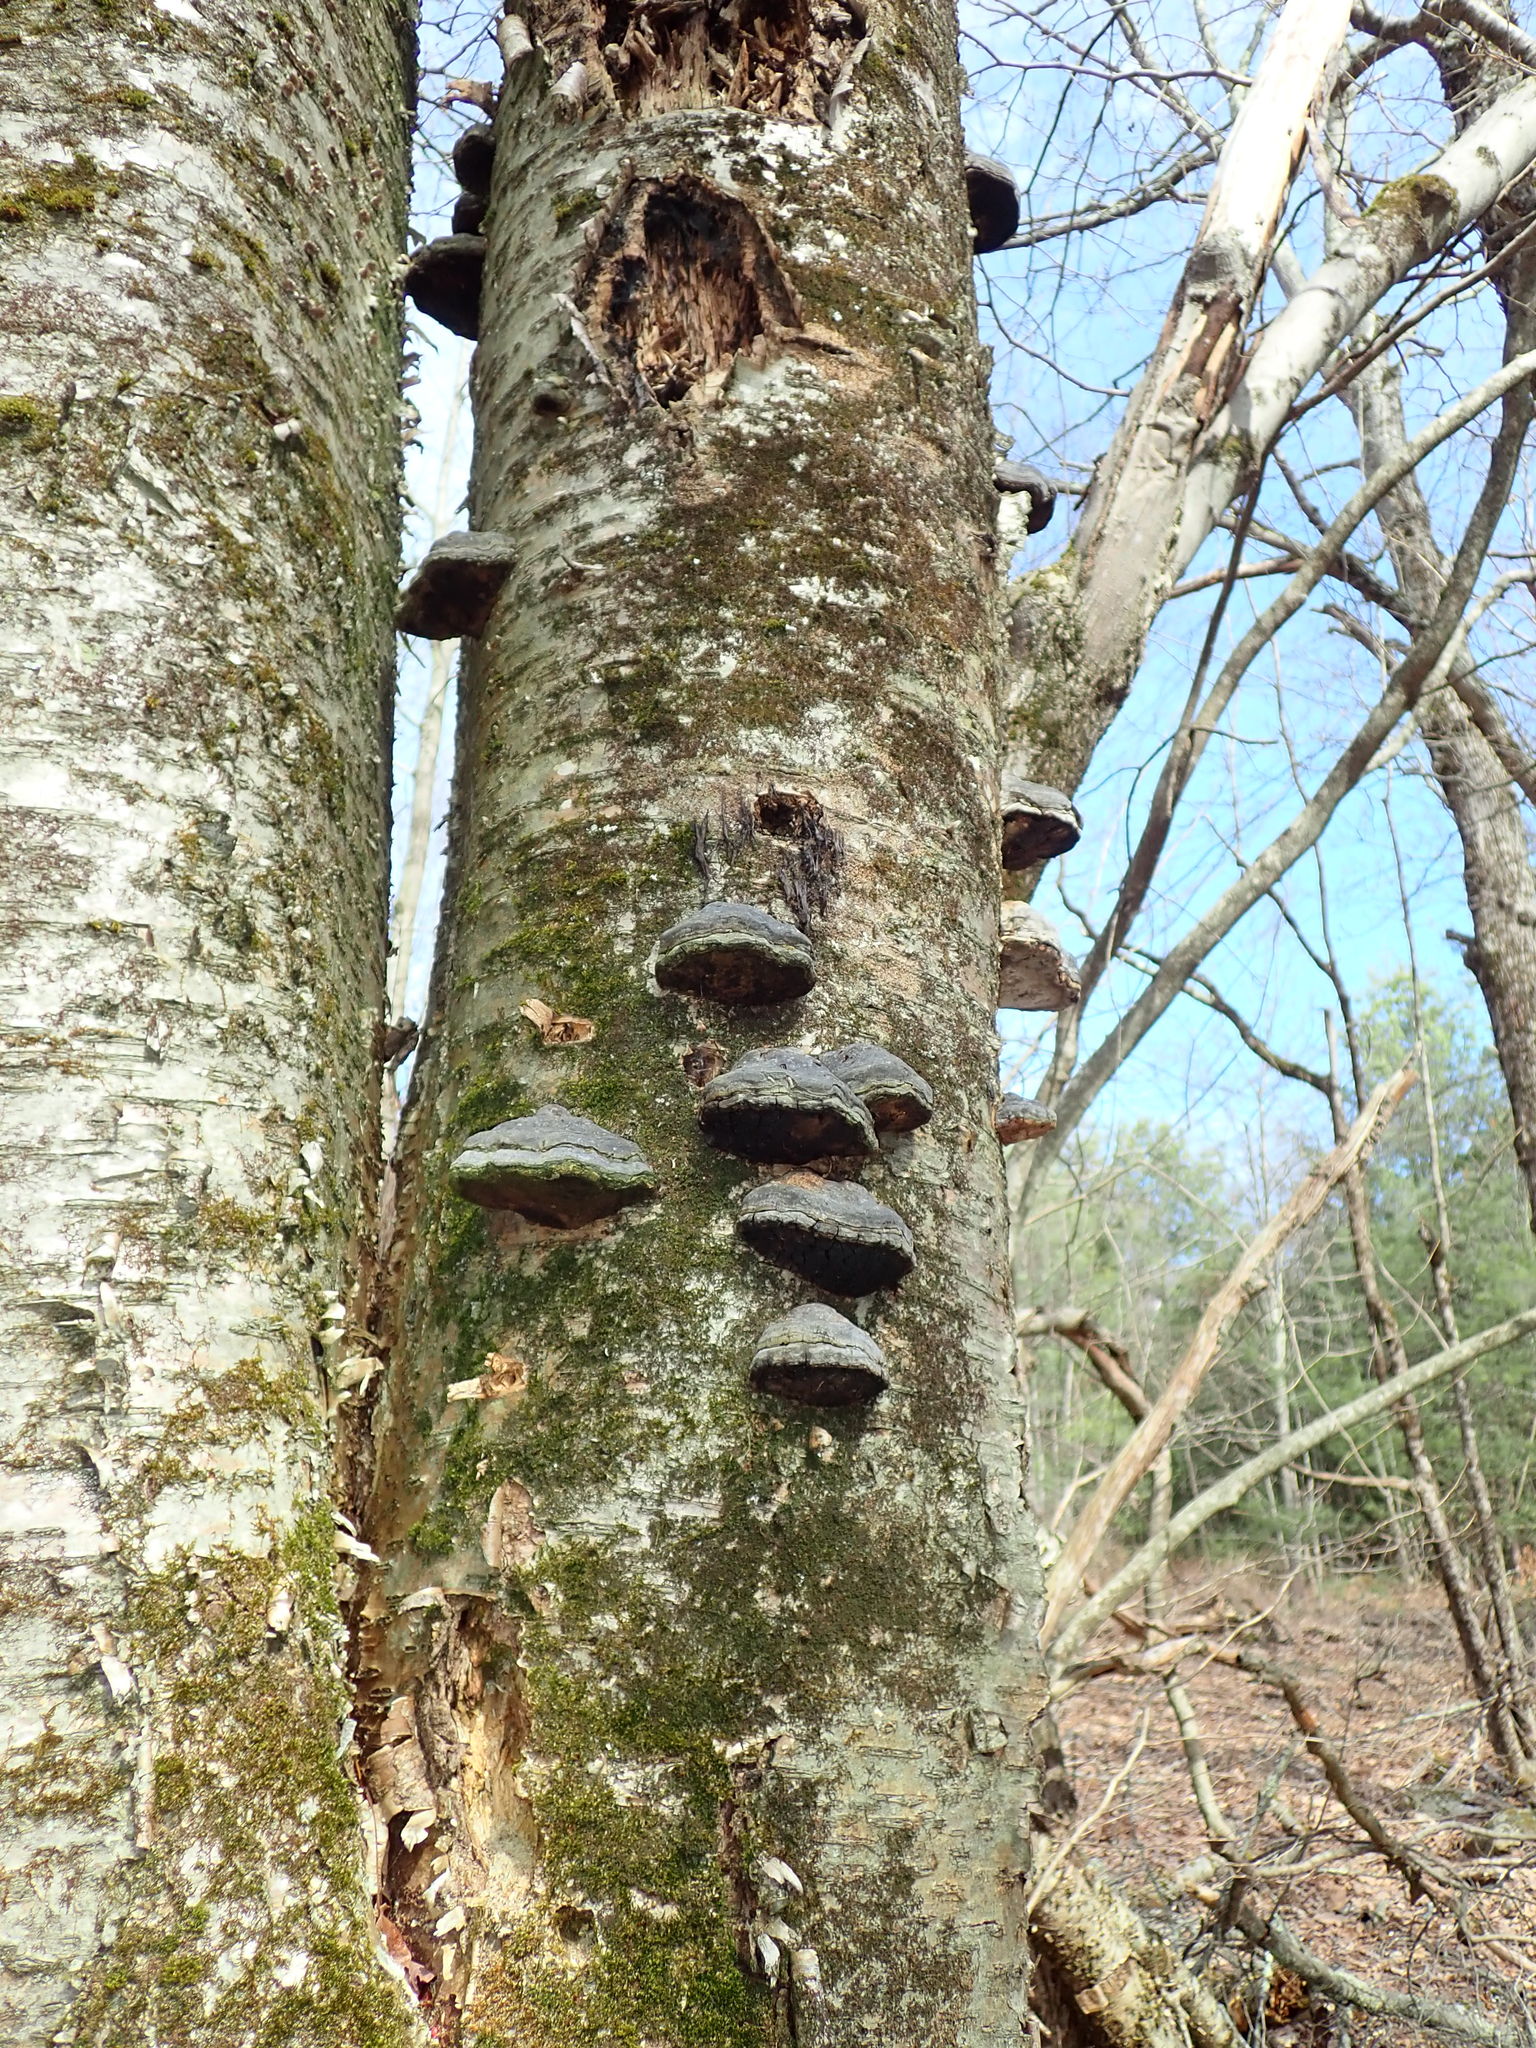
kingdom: Fungi
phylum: Basidiomycota
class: Agaricomycetes
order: Polyporales
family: Polyporaceae
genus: Fomes
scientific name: Fomes fomentarius
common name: Hoof fungus
